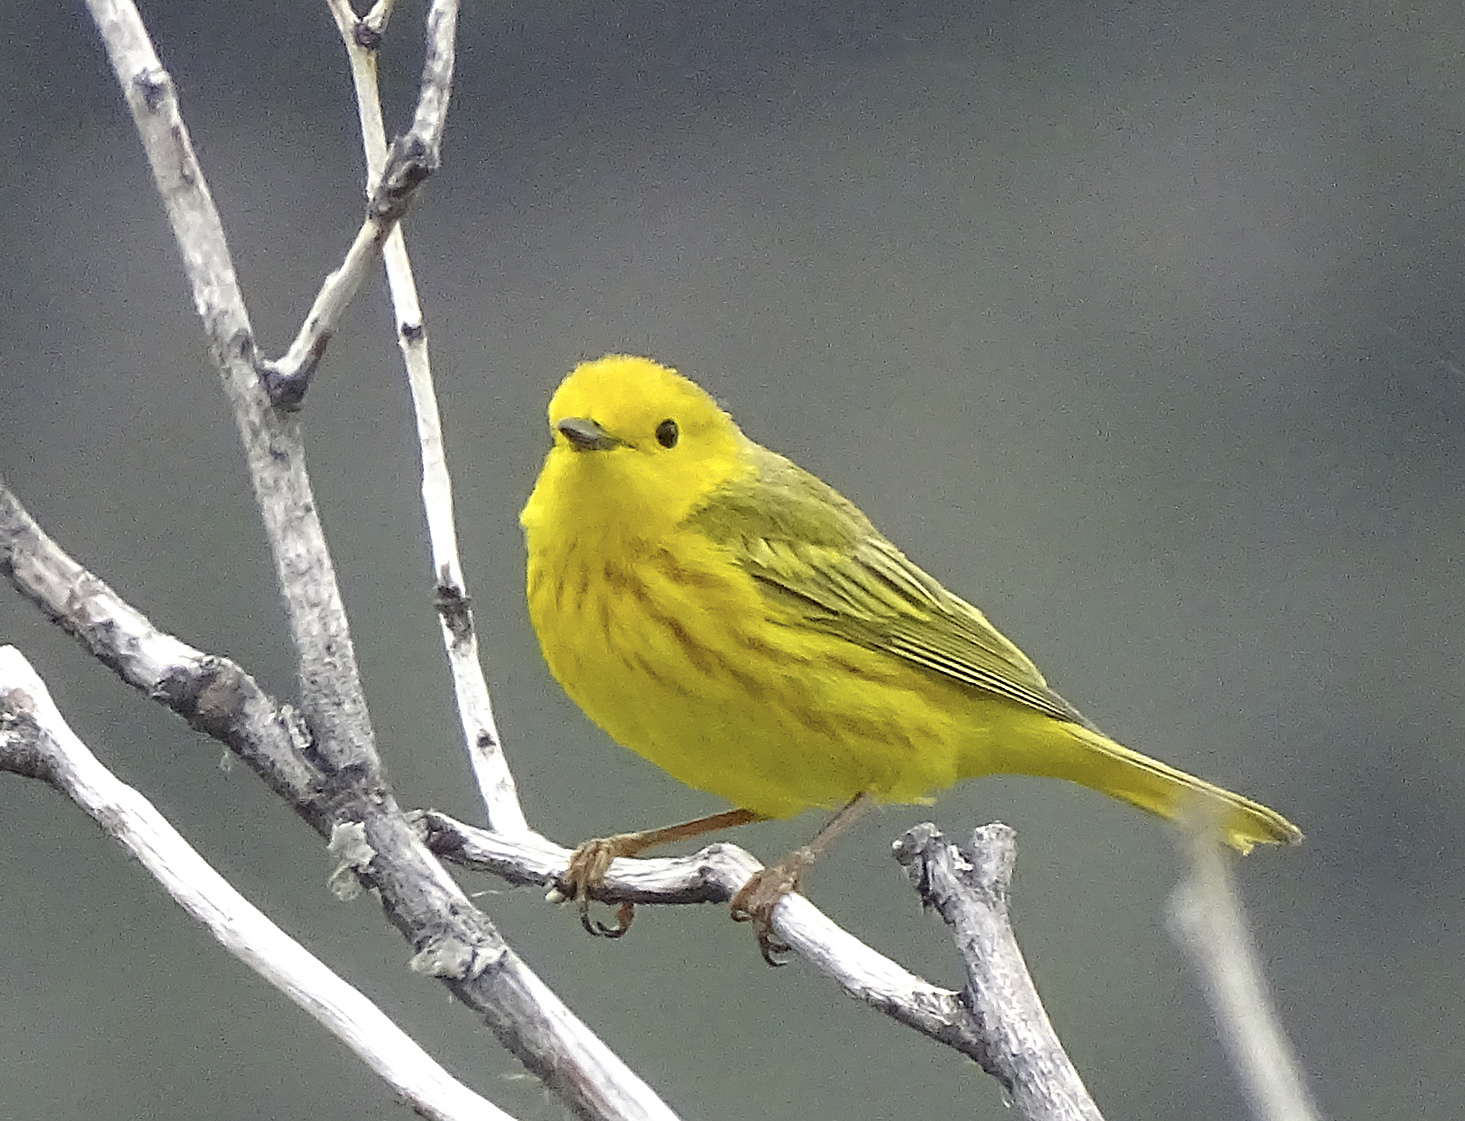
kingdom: Animalia
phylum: Chordata
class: Aves
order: Passeriformes
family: Parulidae
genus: Setophaga
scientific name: Setophaga petechia
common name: Yellow warbler
